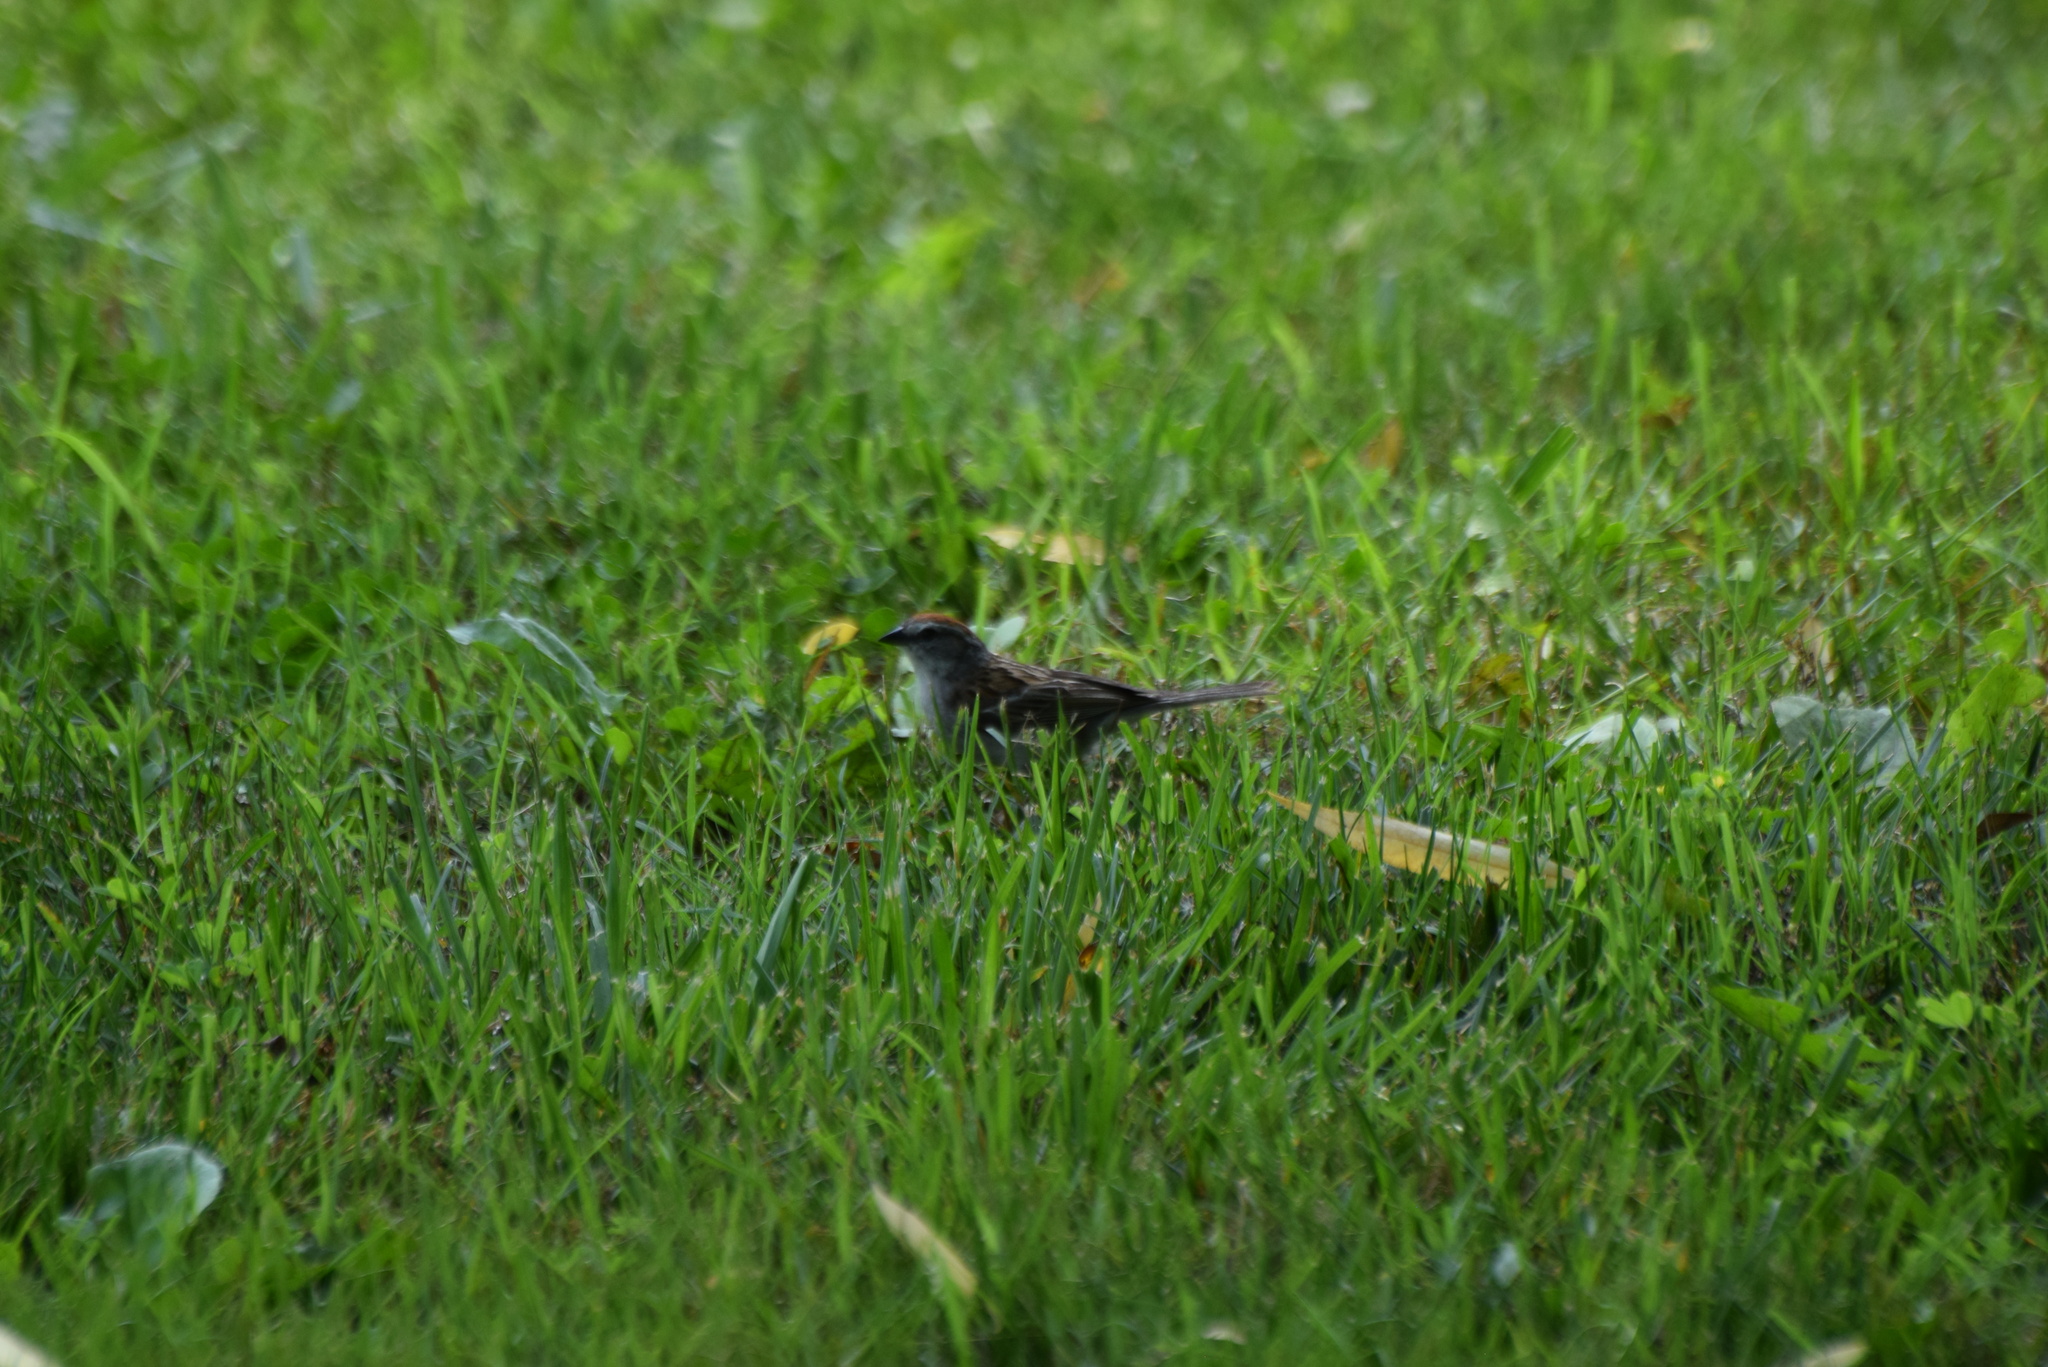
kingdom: Animalia
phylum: Chordata
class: Aves
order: Passeriformes
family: Passerellidae
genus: Spizella
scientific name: Spizella passerina
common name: Chipping sparrow
